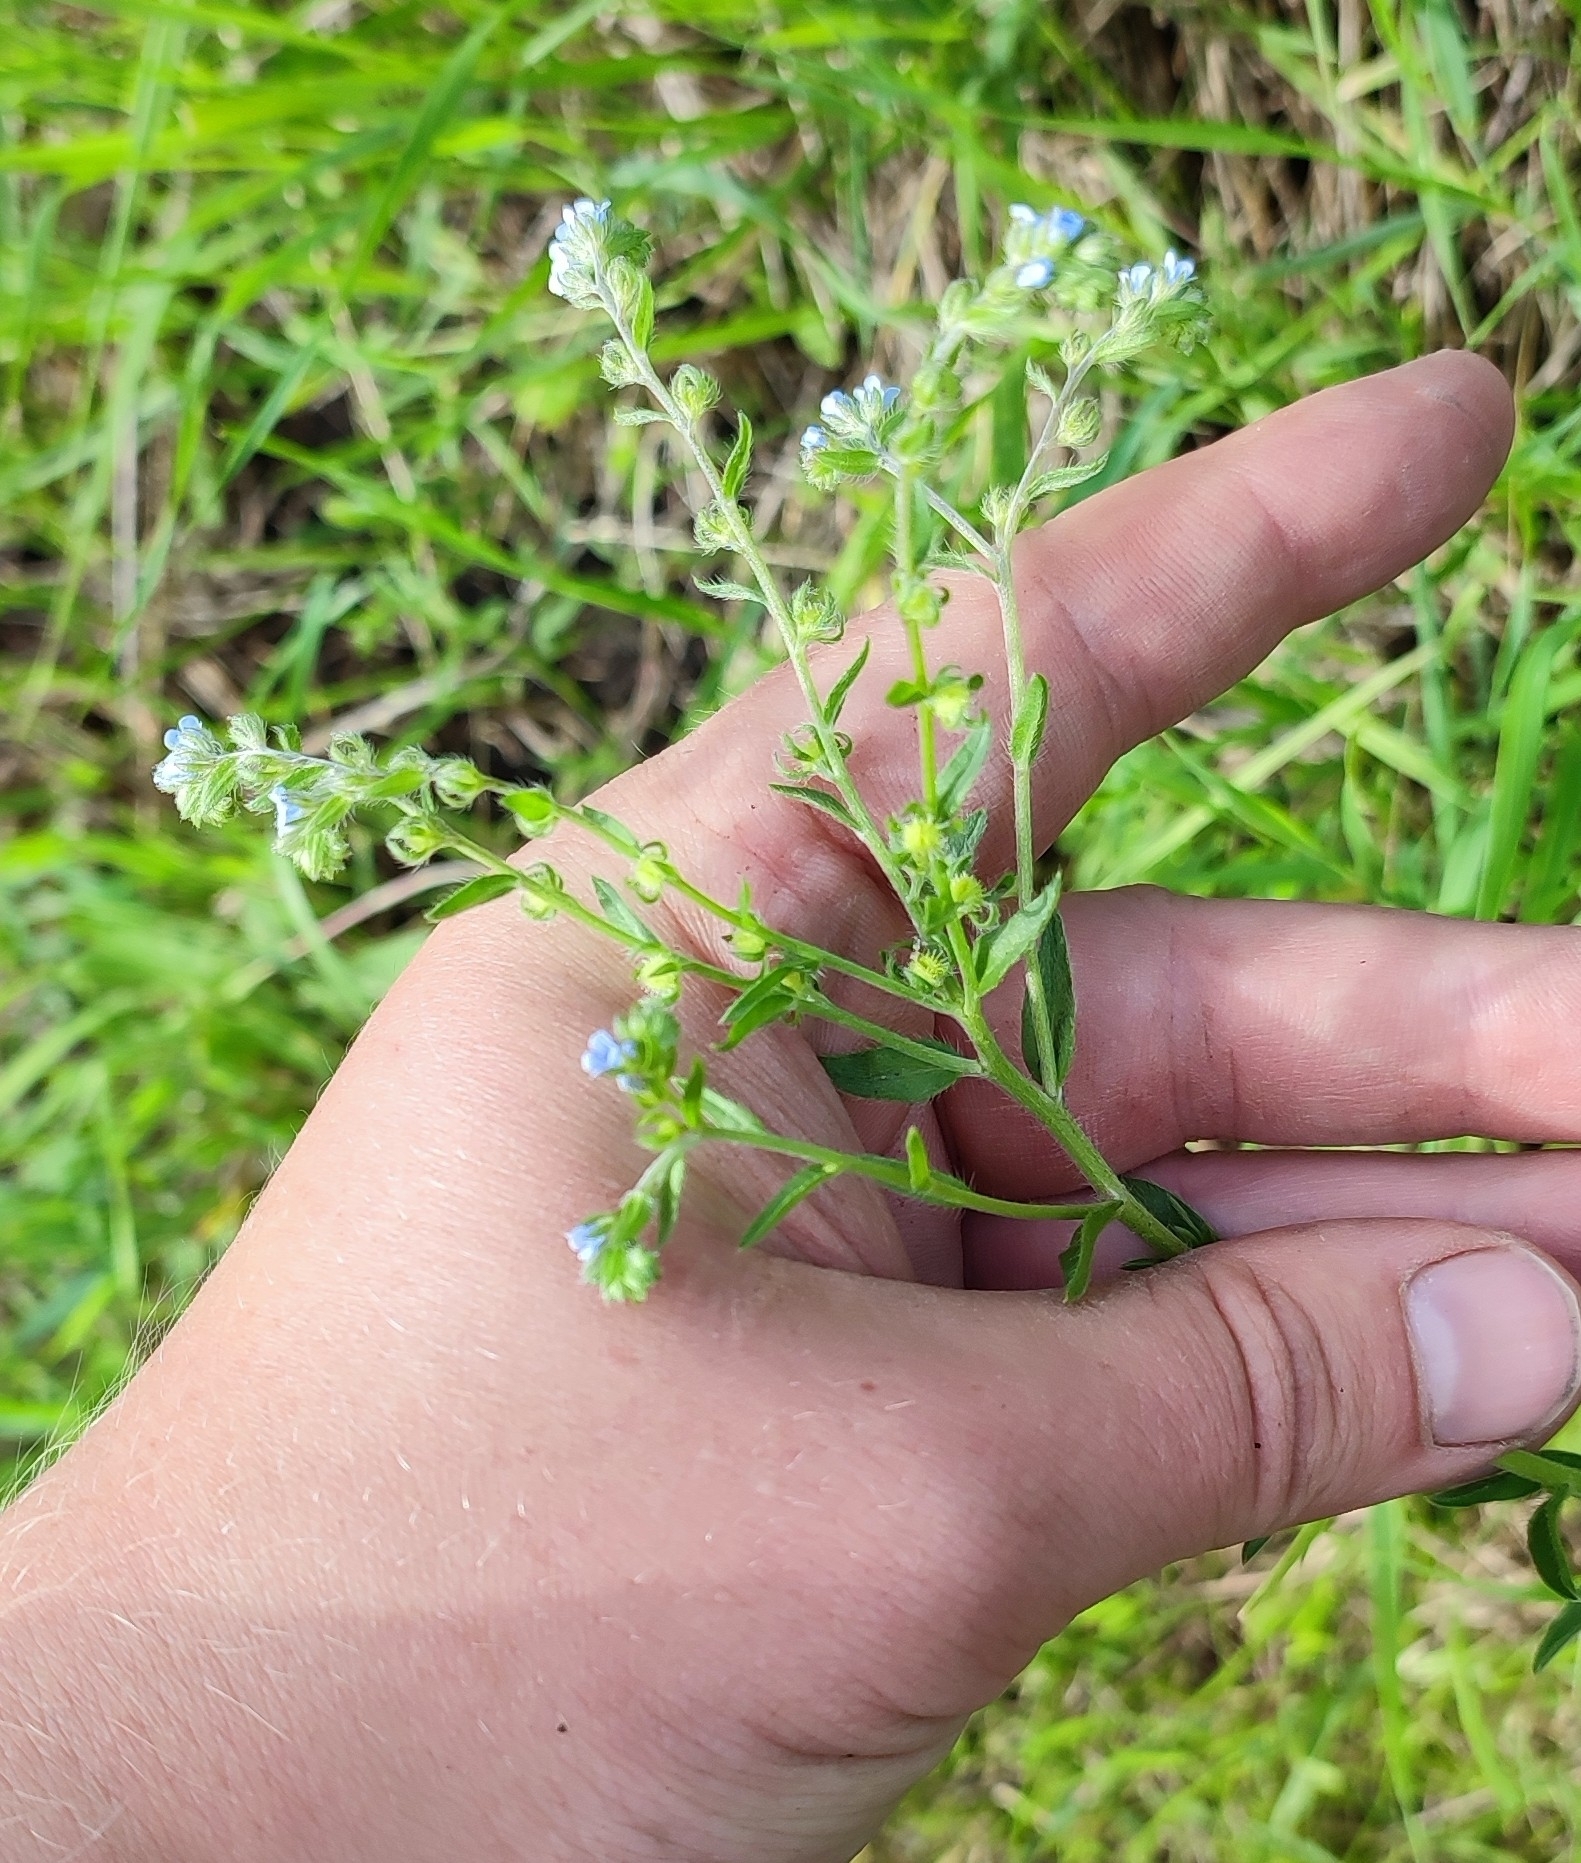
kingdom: Plantae
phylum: Tracheophyta
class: Magnoliopsida
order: Boraginales
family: Boraginaceae
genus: Lappula
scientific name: Lappula squarrosa
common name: European stickseed
